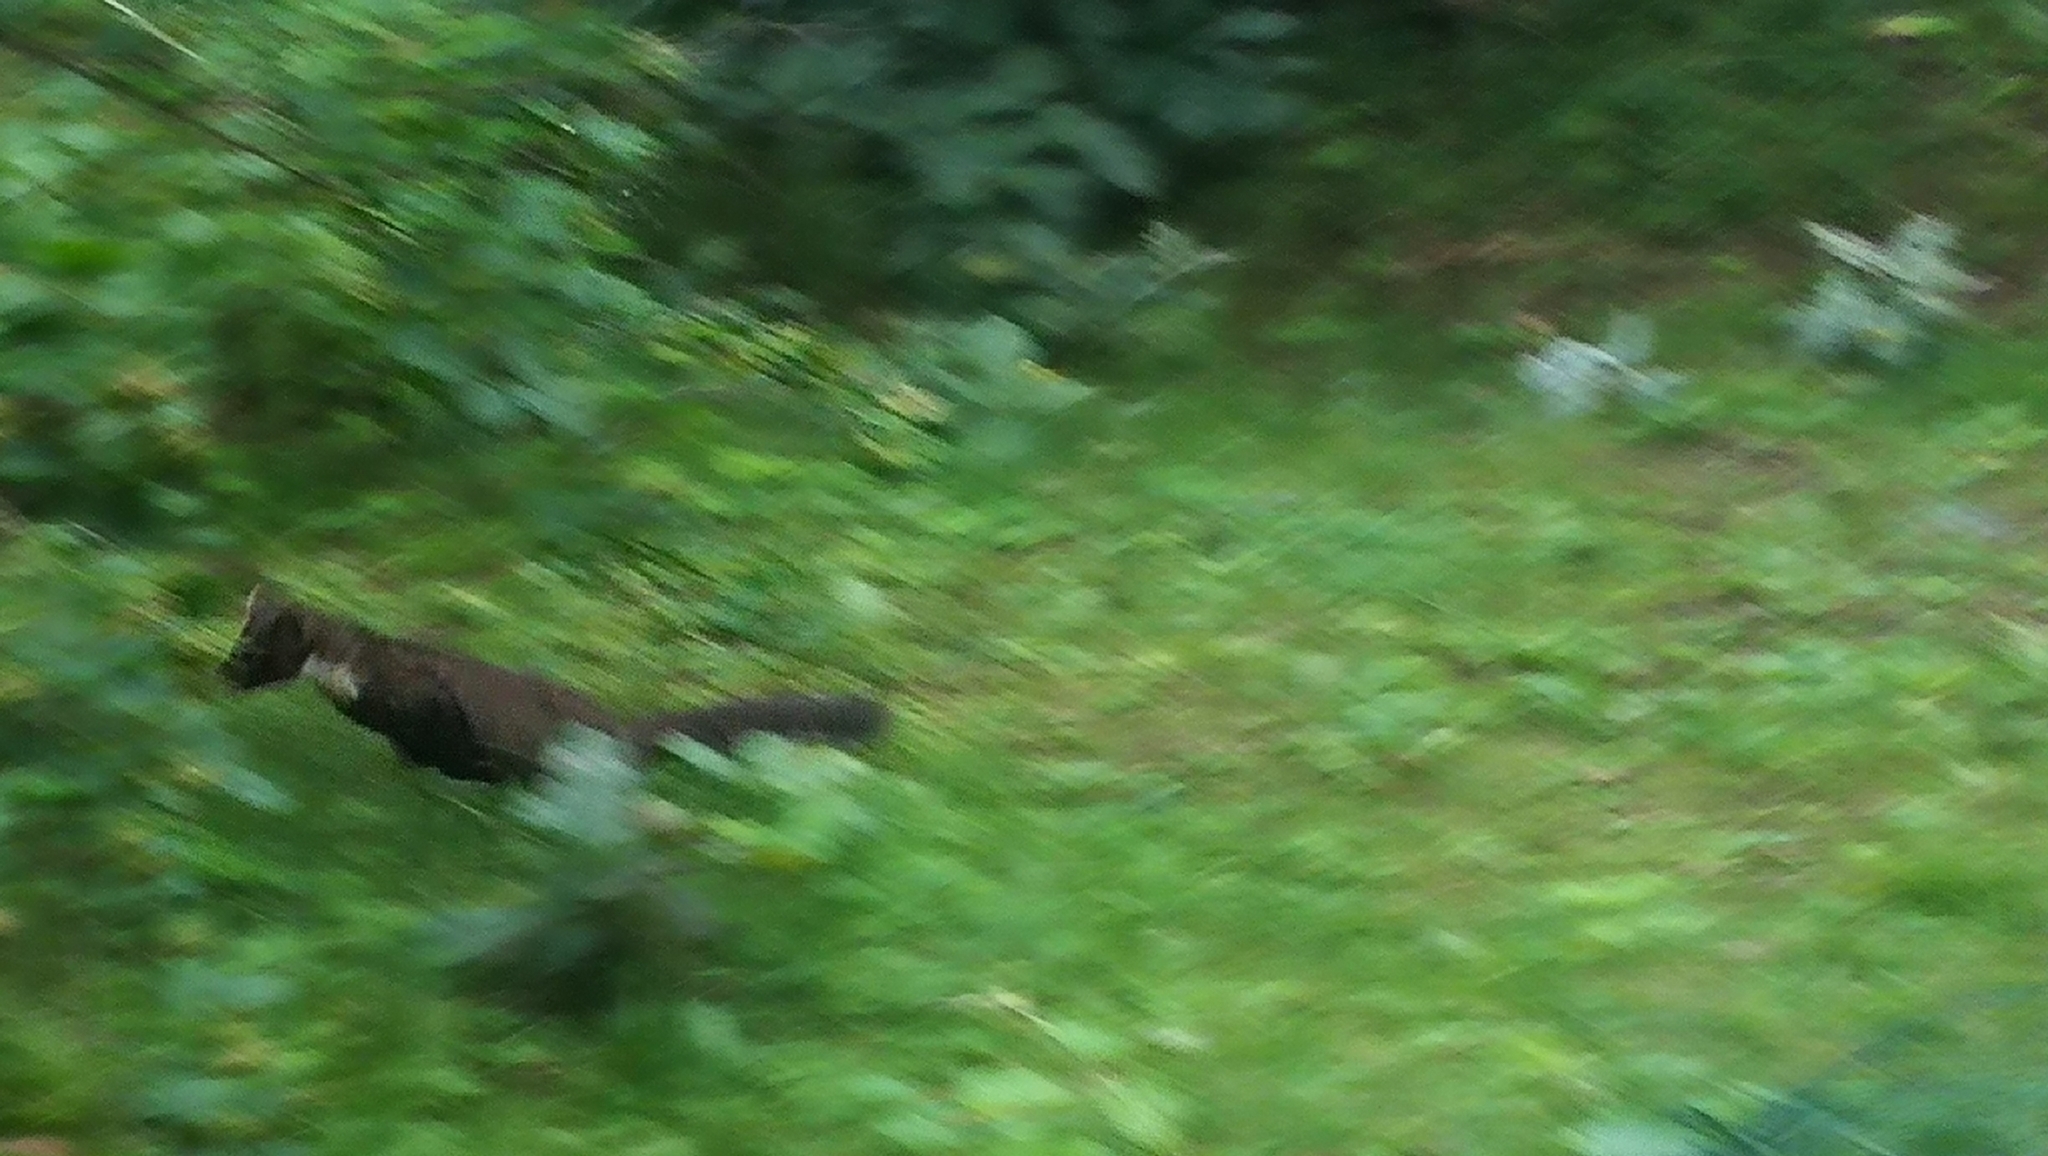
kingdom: Animalia
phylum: Chordata
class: Mammalia
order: Carnivora
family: Mustelidae
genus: Martes
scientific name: Martes martes
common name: European pine marten
